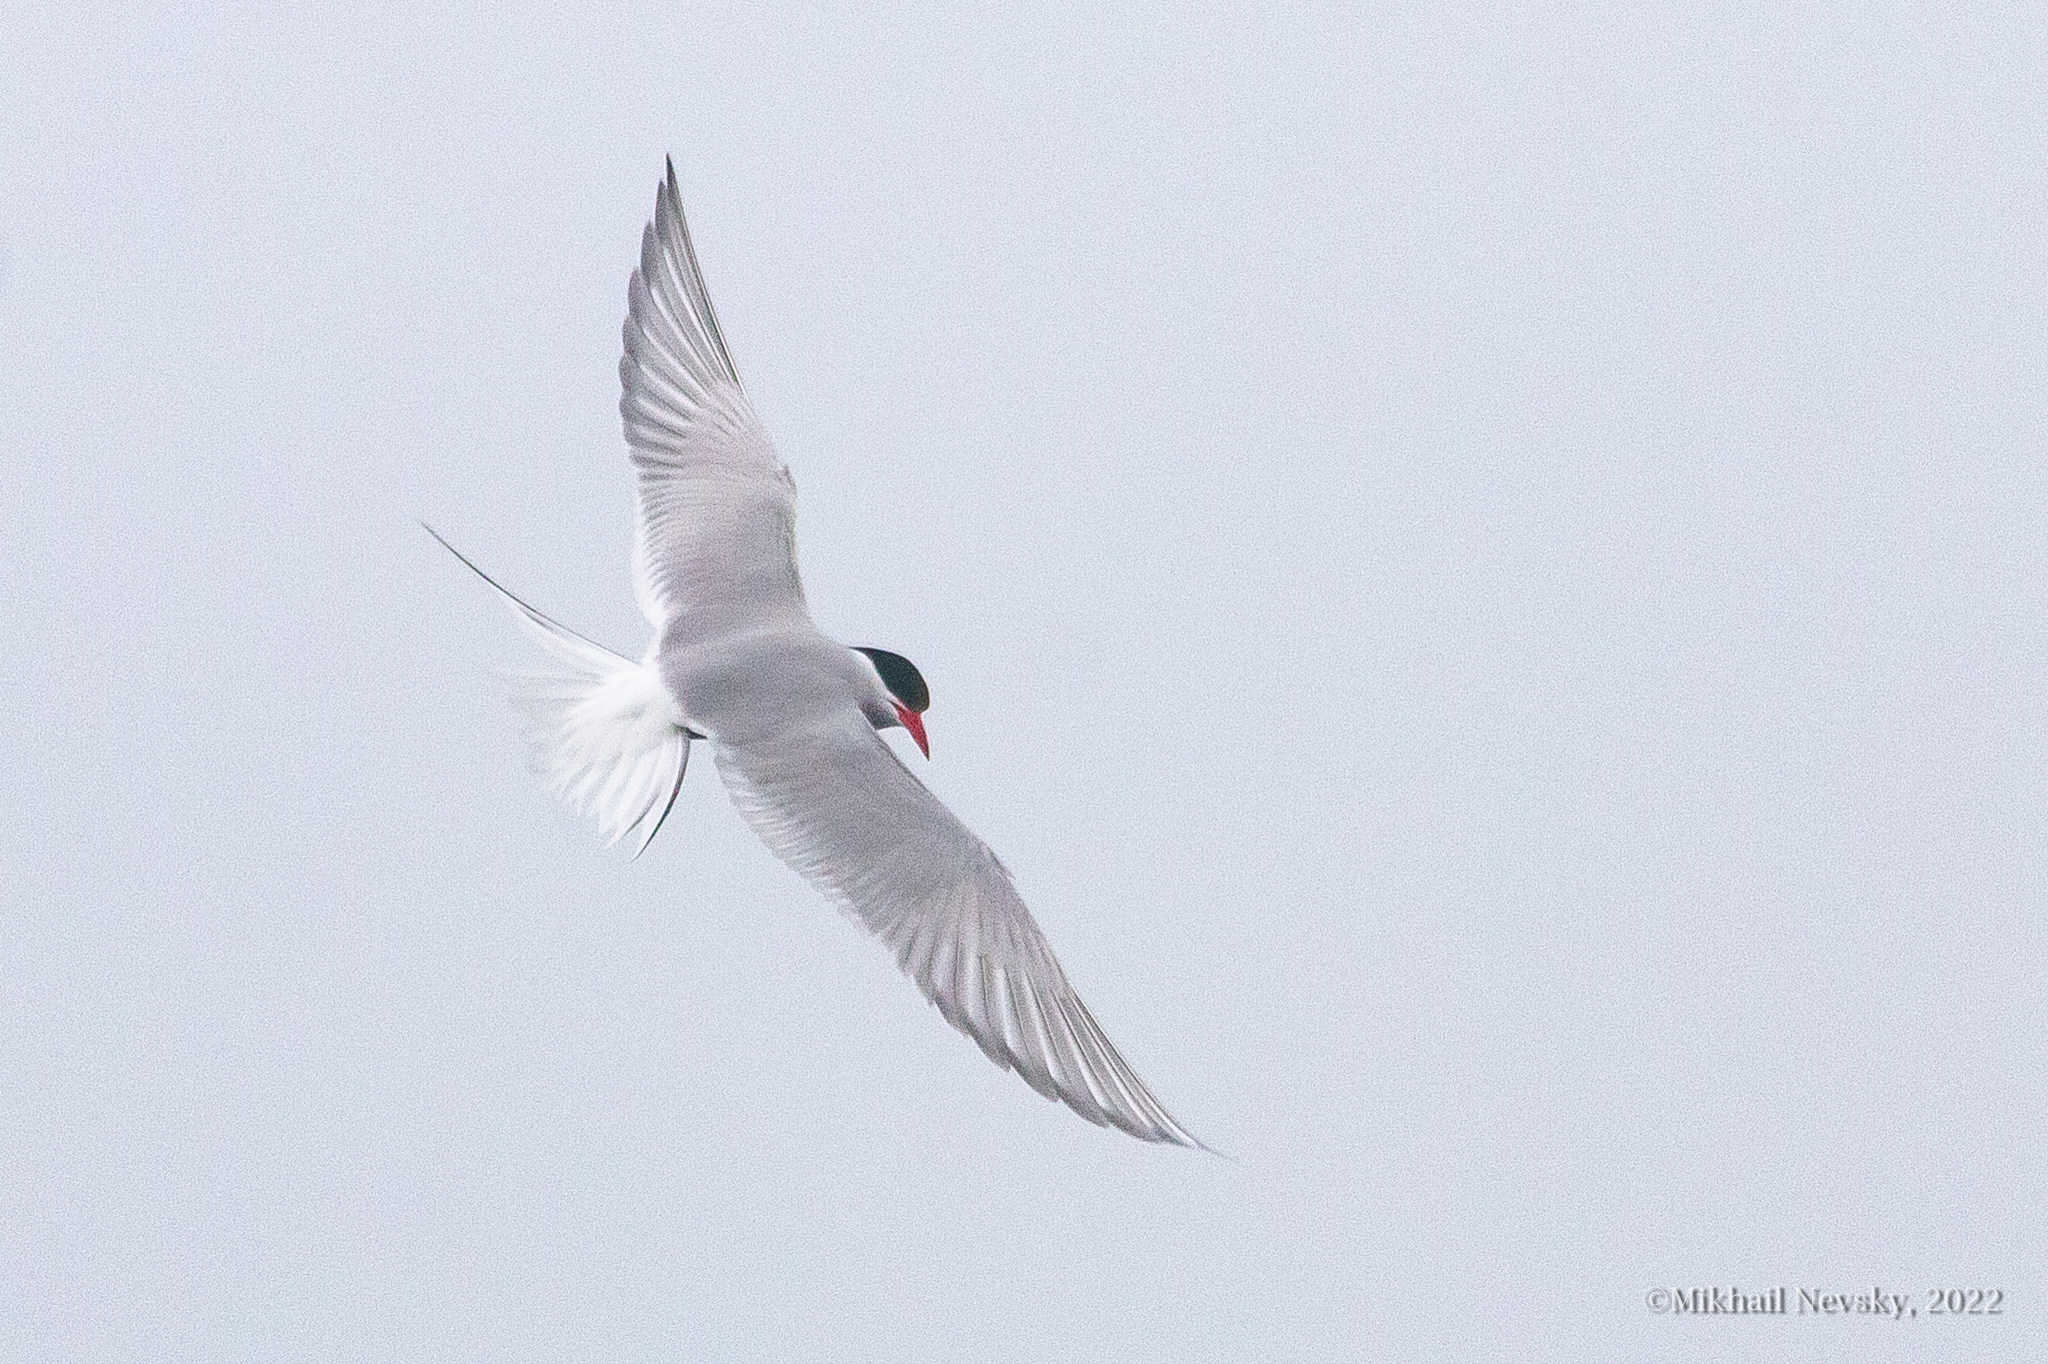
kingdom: Animalia
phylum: Chordata
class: Aves
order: Charadriiformes
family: Laridae
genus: Sterna
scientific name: Sterna paradisaea
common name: Arctic tern
